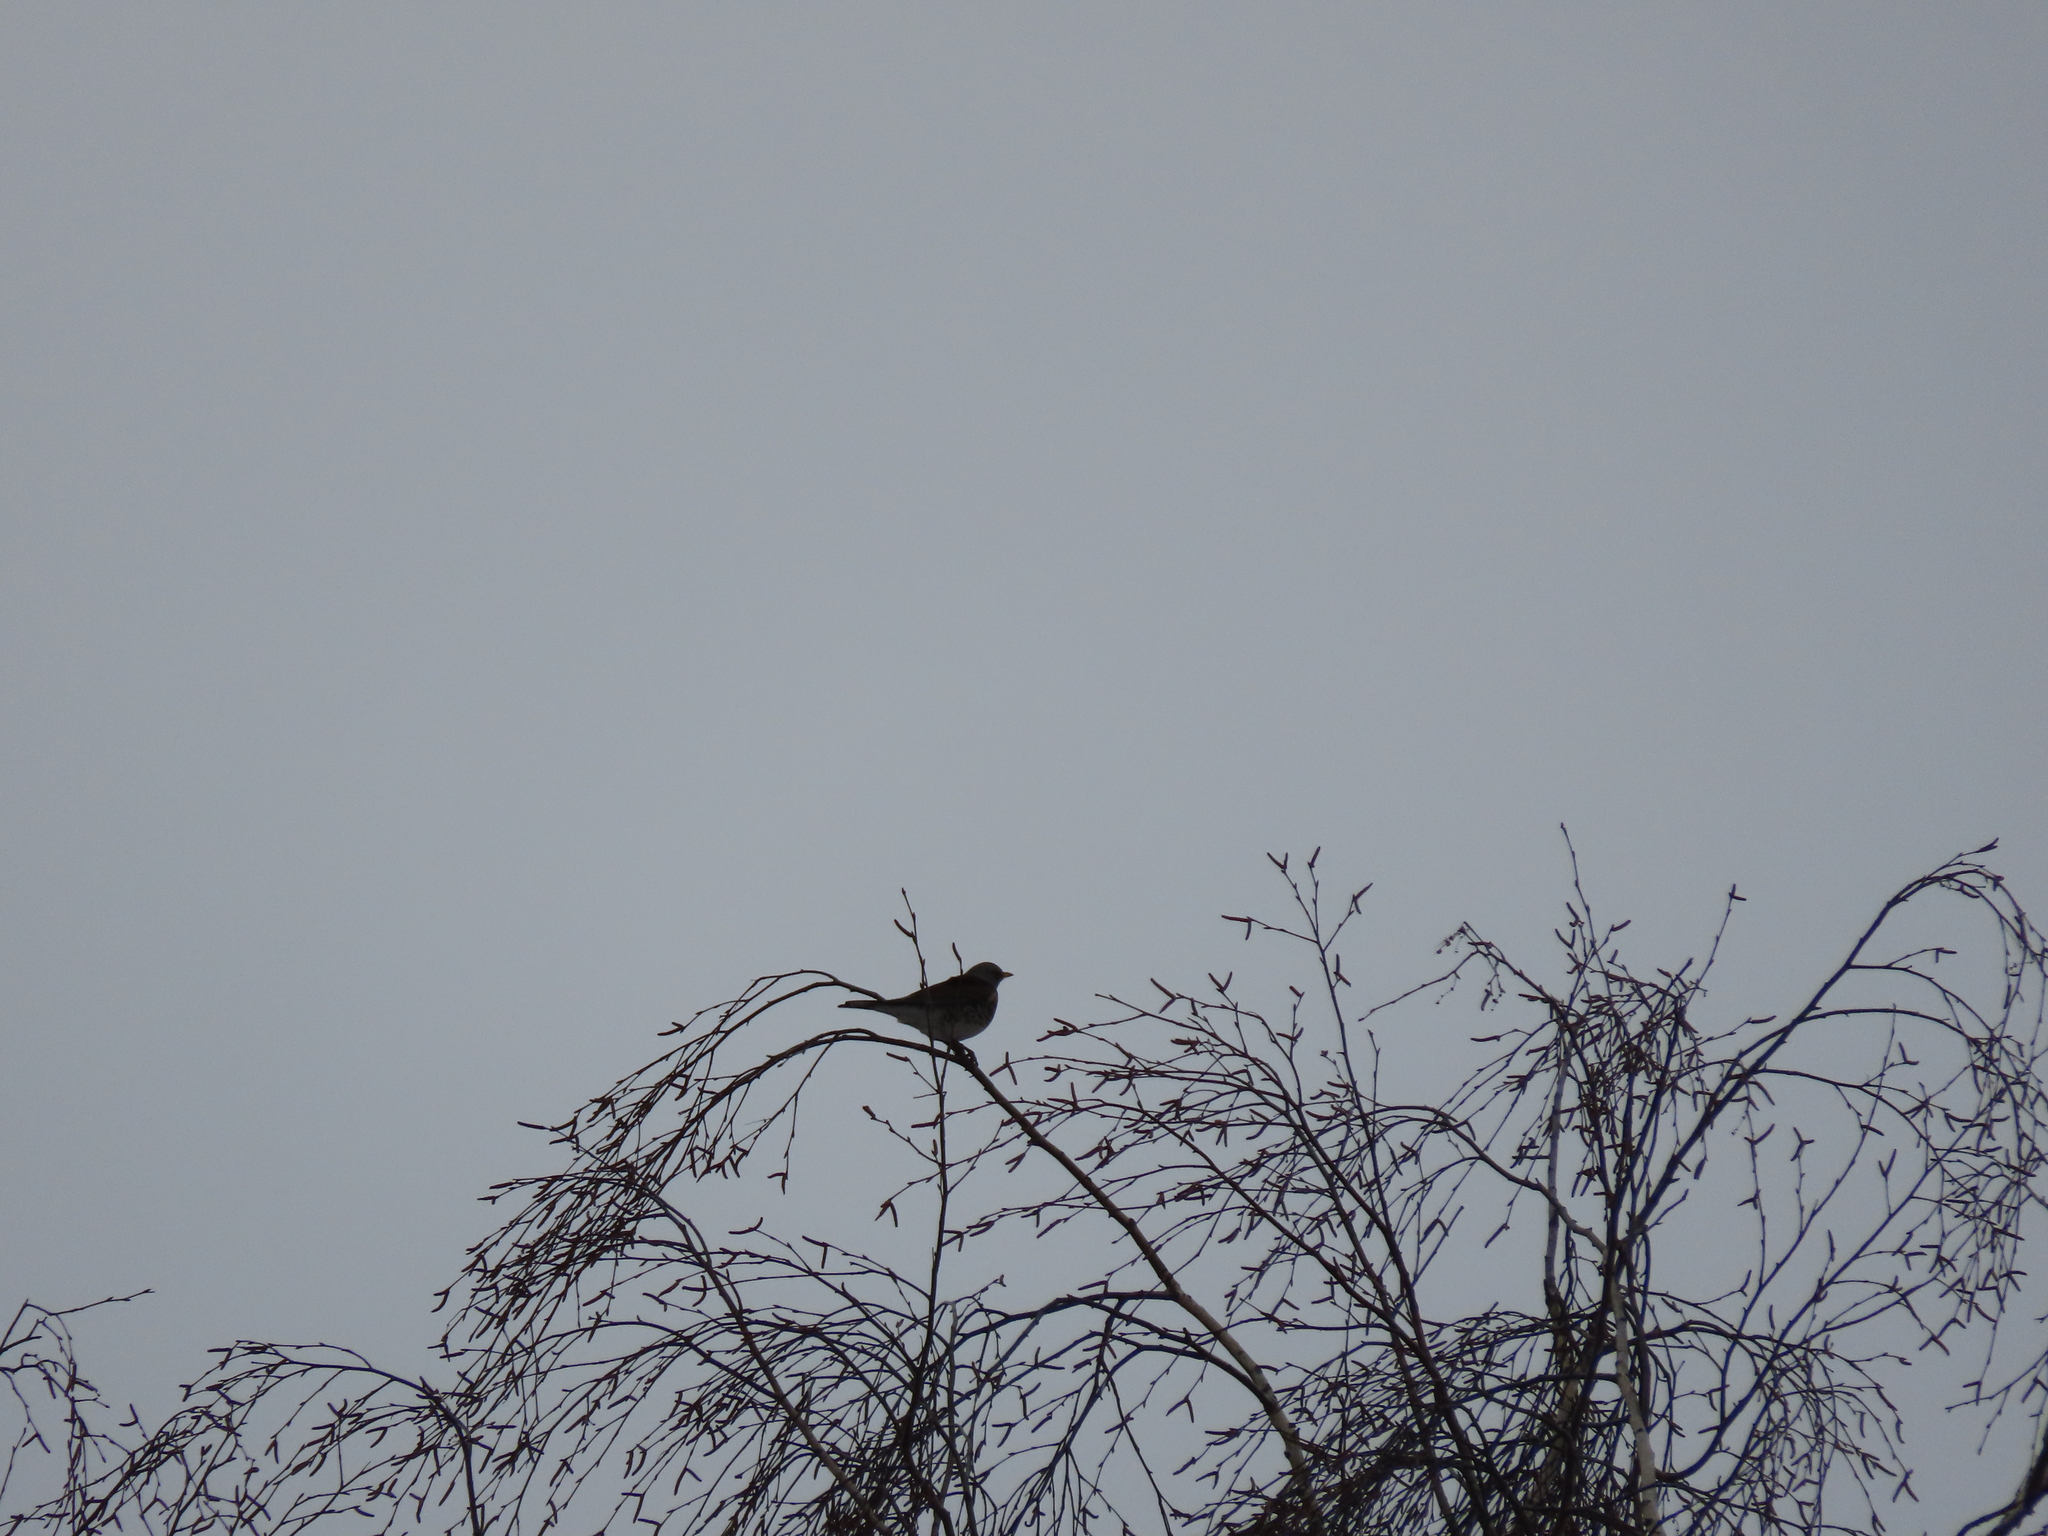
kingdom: Animalia
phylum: Chordata
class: Aves
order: Passeriformes
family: Turdidae
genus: Turdus
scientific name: Turdus pilaris
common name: Fieldfare
